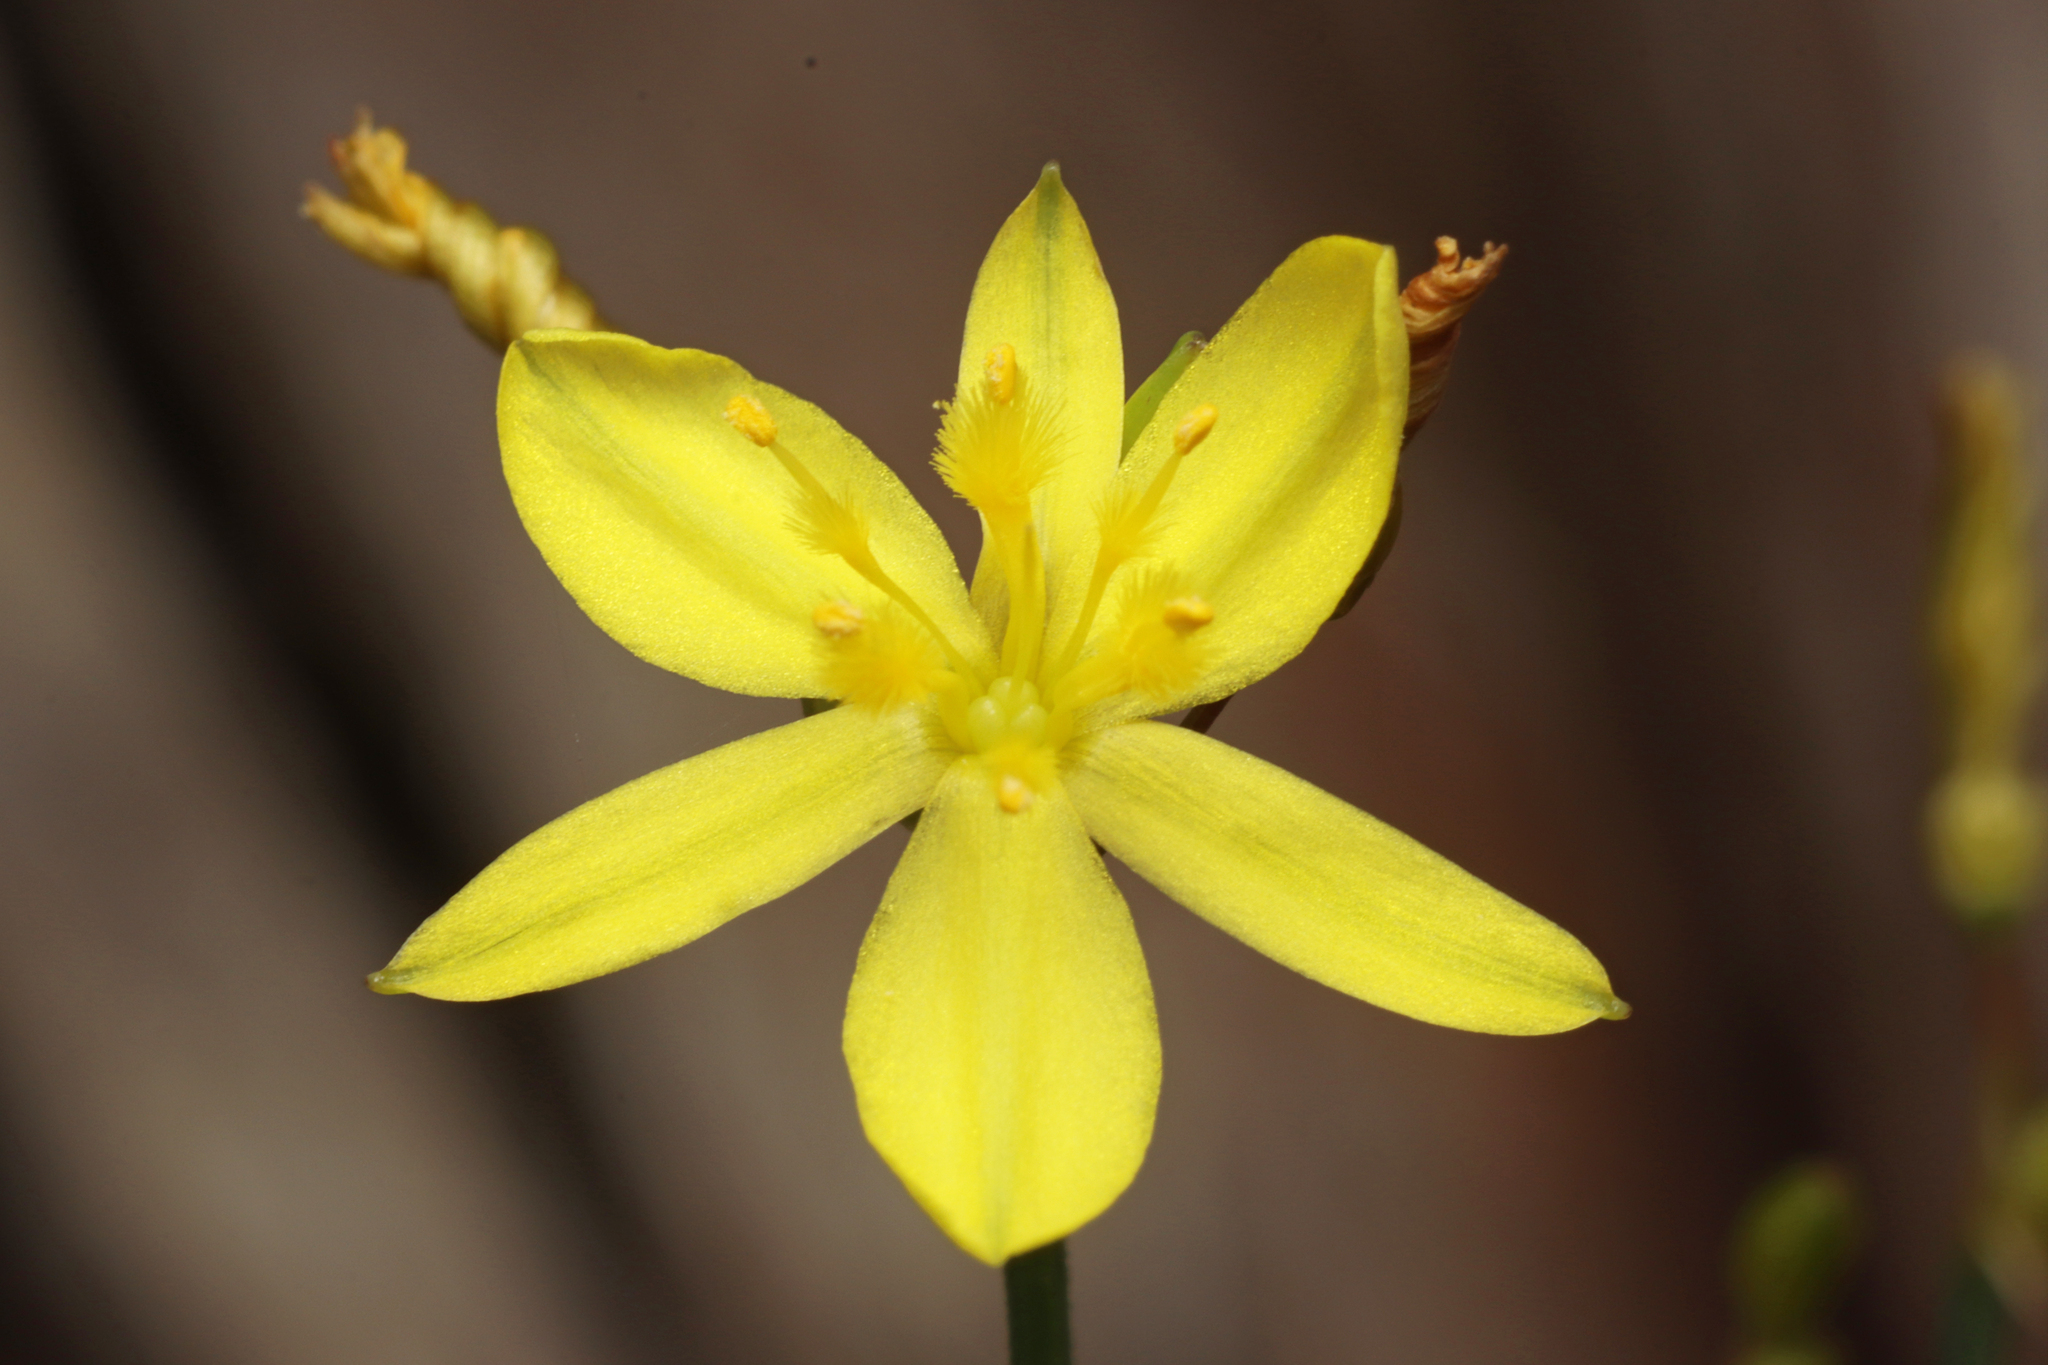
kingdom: Plantae
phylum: Tracheophyta
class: Liliopsida
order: Asparagales
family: Asphodelaceae
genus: Tricoryne
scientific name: Tricoryne elatior
